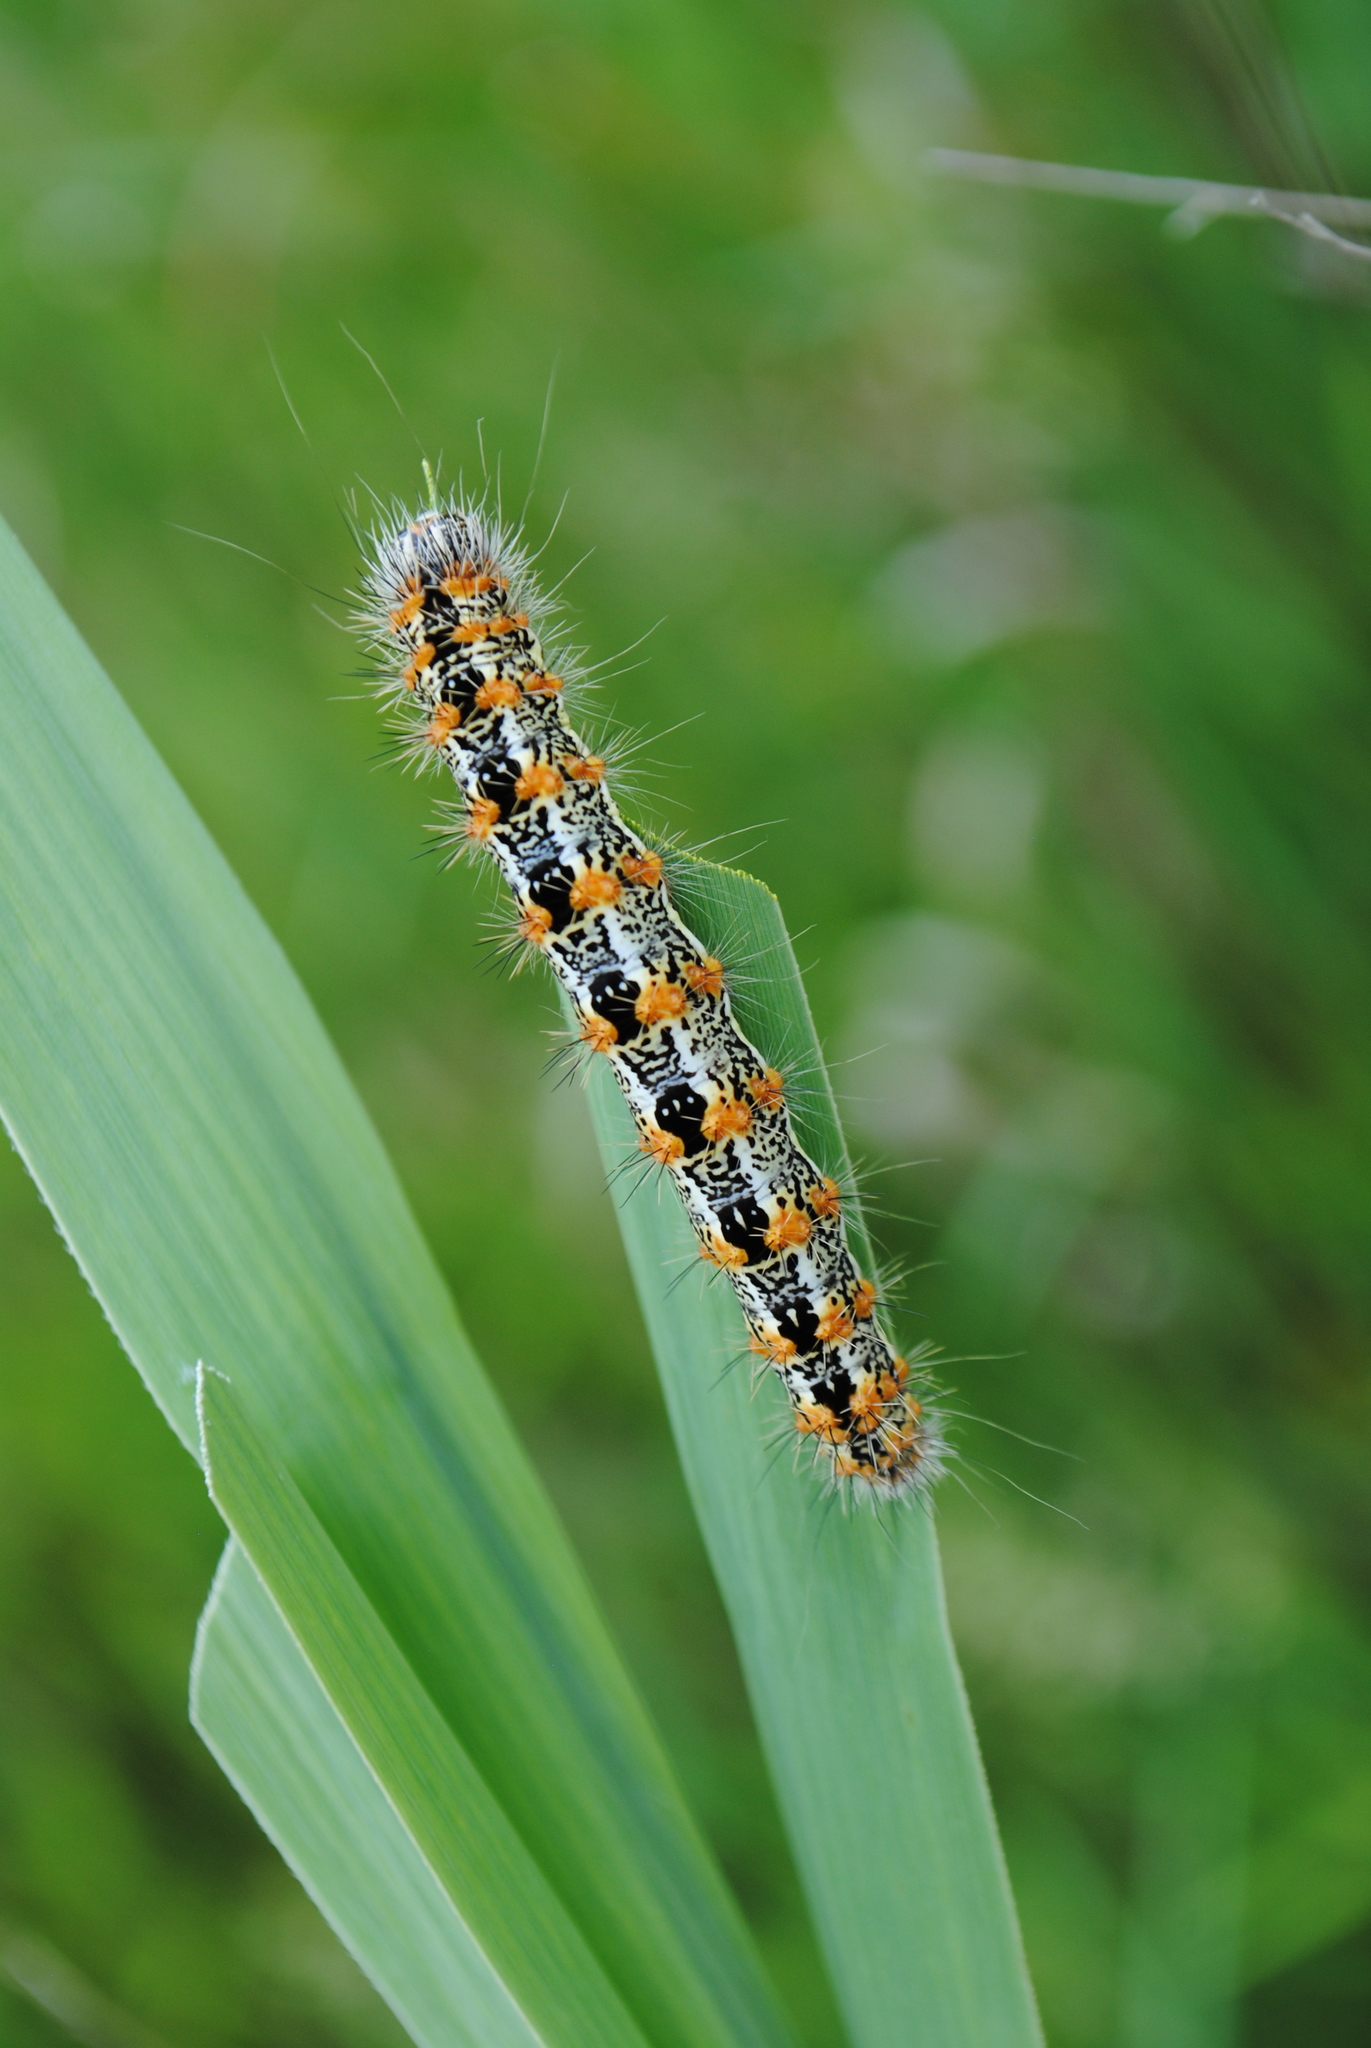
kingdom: Animalia
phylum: Arthropoda
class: Insecta
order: Lepidoptera
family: Noctuidae
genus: Acronicta
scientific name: Acronicta insularis
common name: Henry's marsh moth
